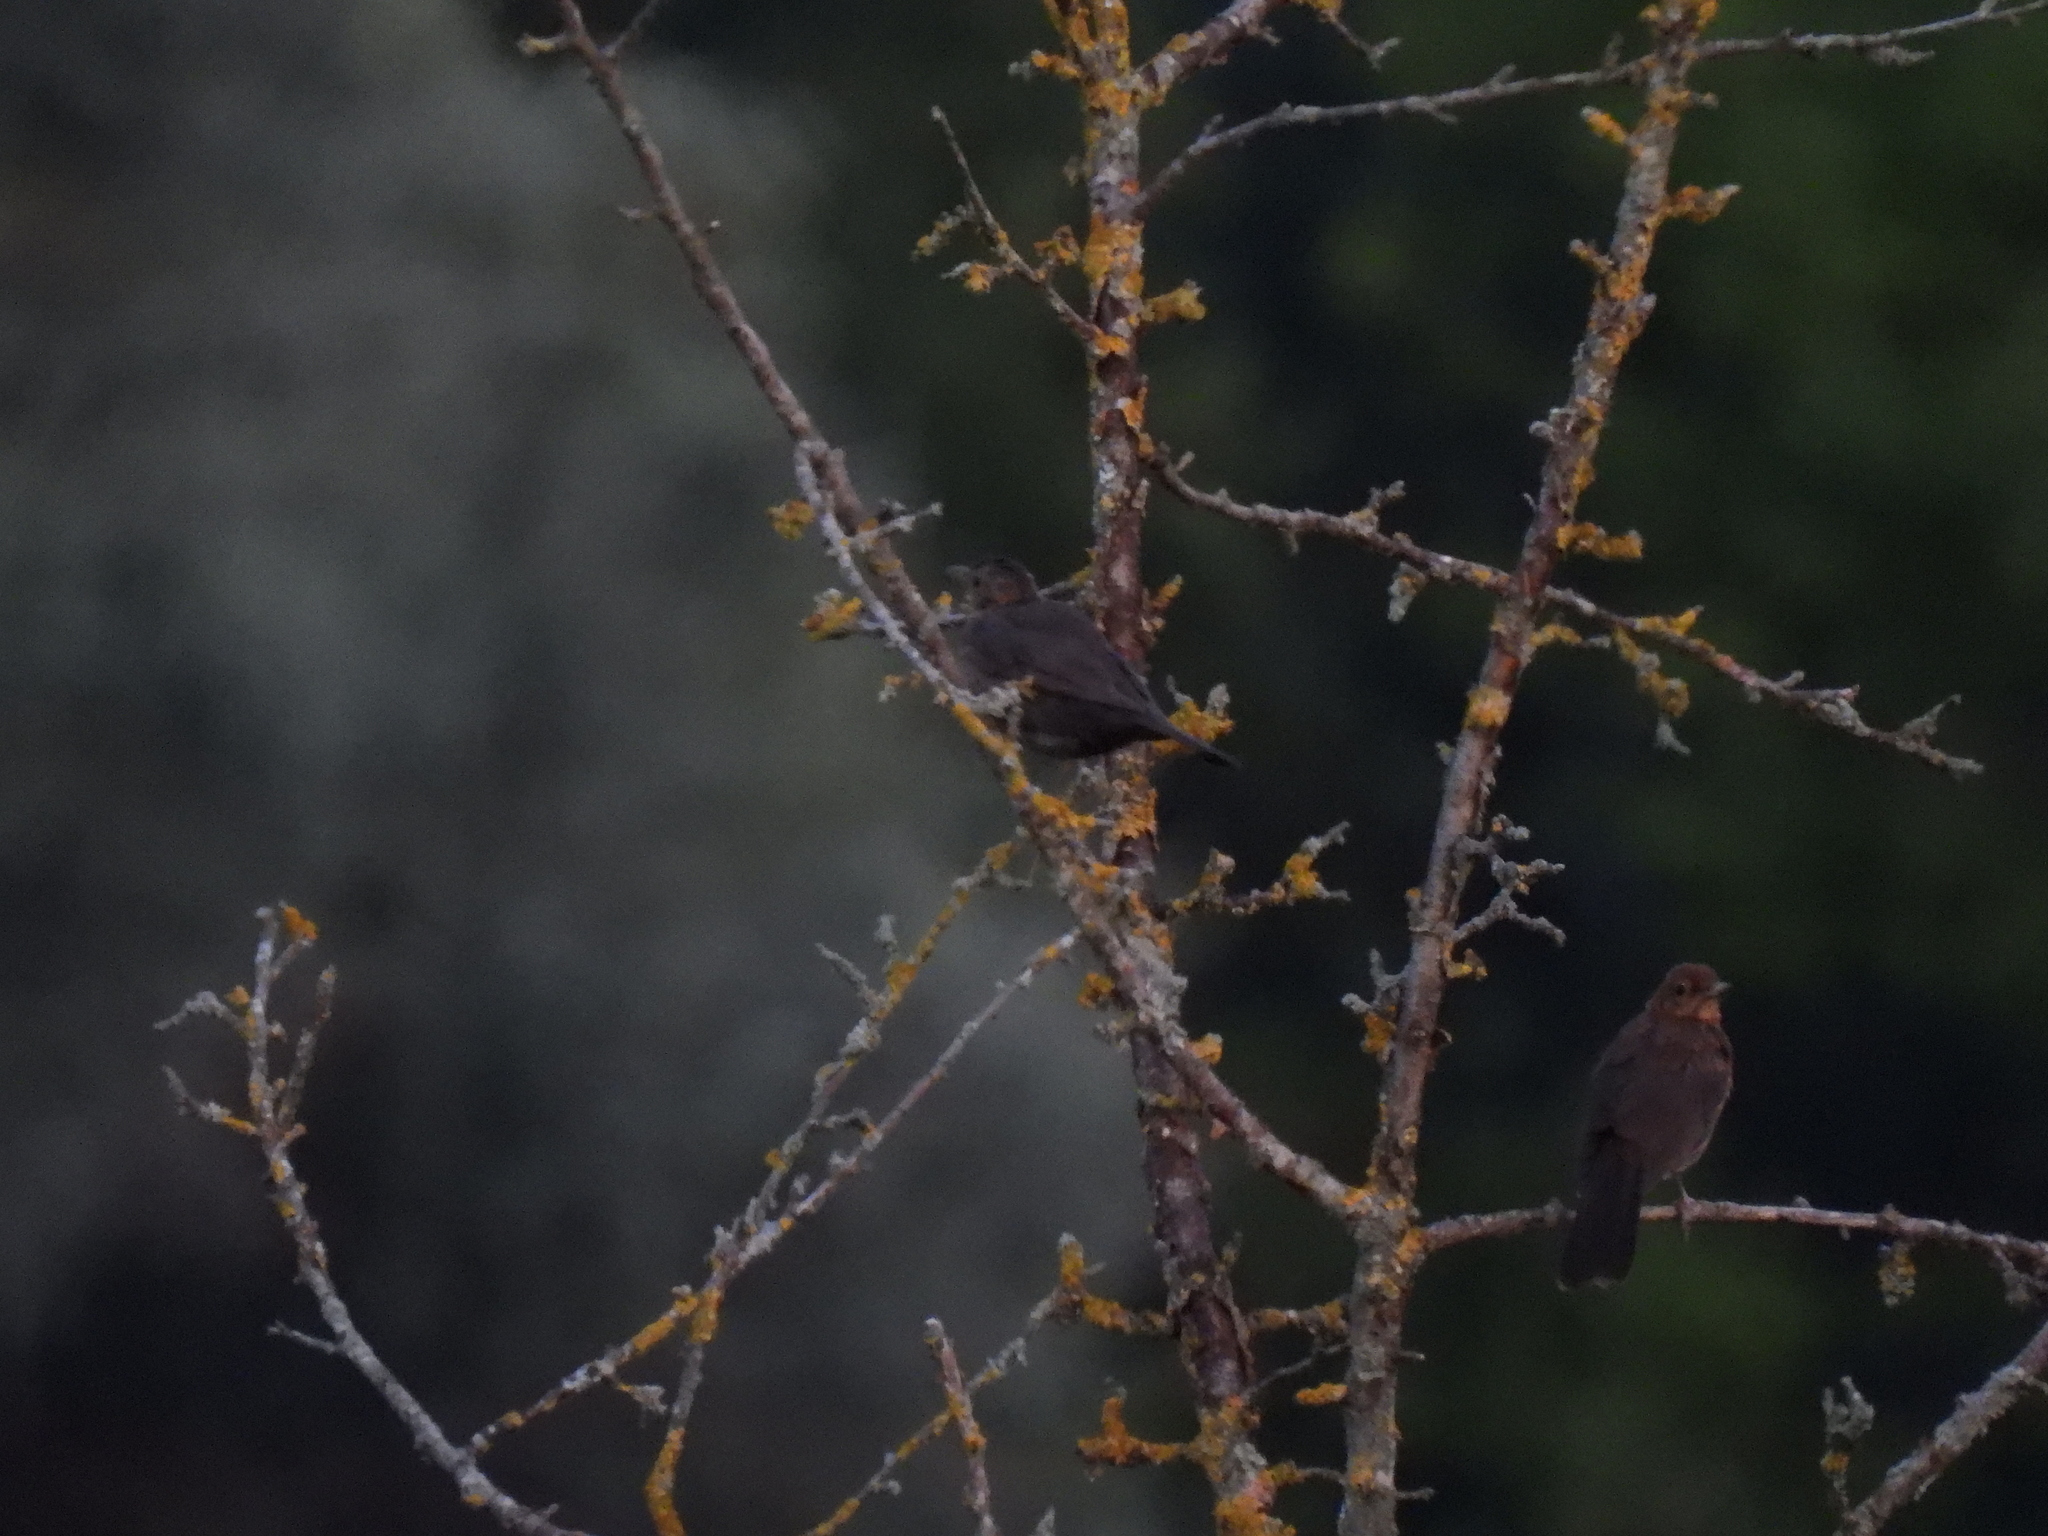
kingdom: Animalia
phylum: Chordata
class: Aves
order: Passeriformes
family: Turdidae
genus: Turdus
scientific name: Turdus merula
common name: Common blackbird
